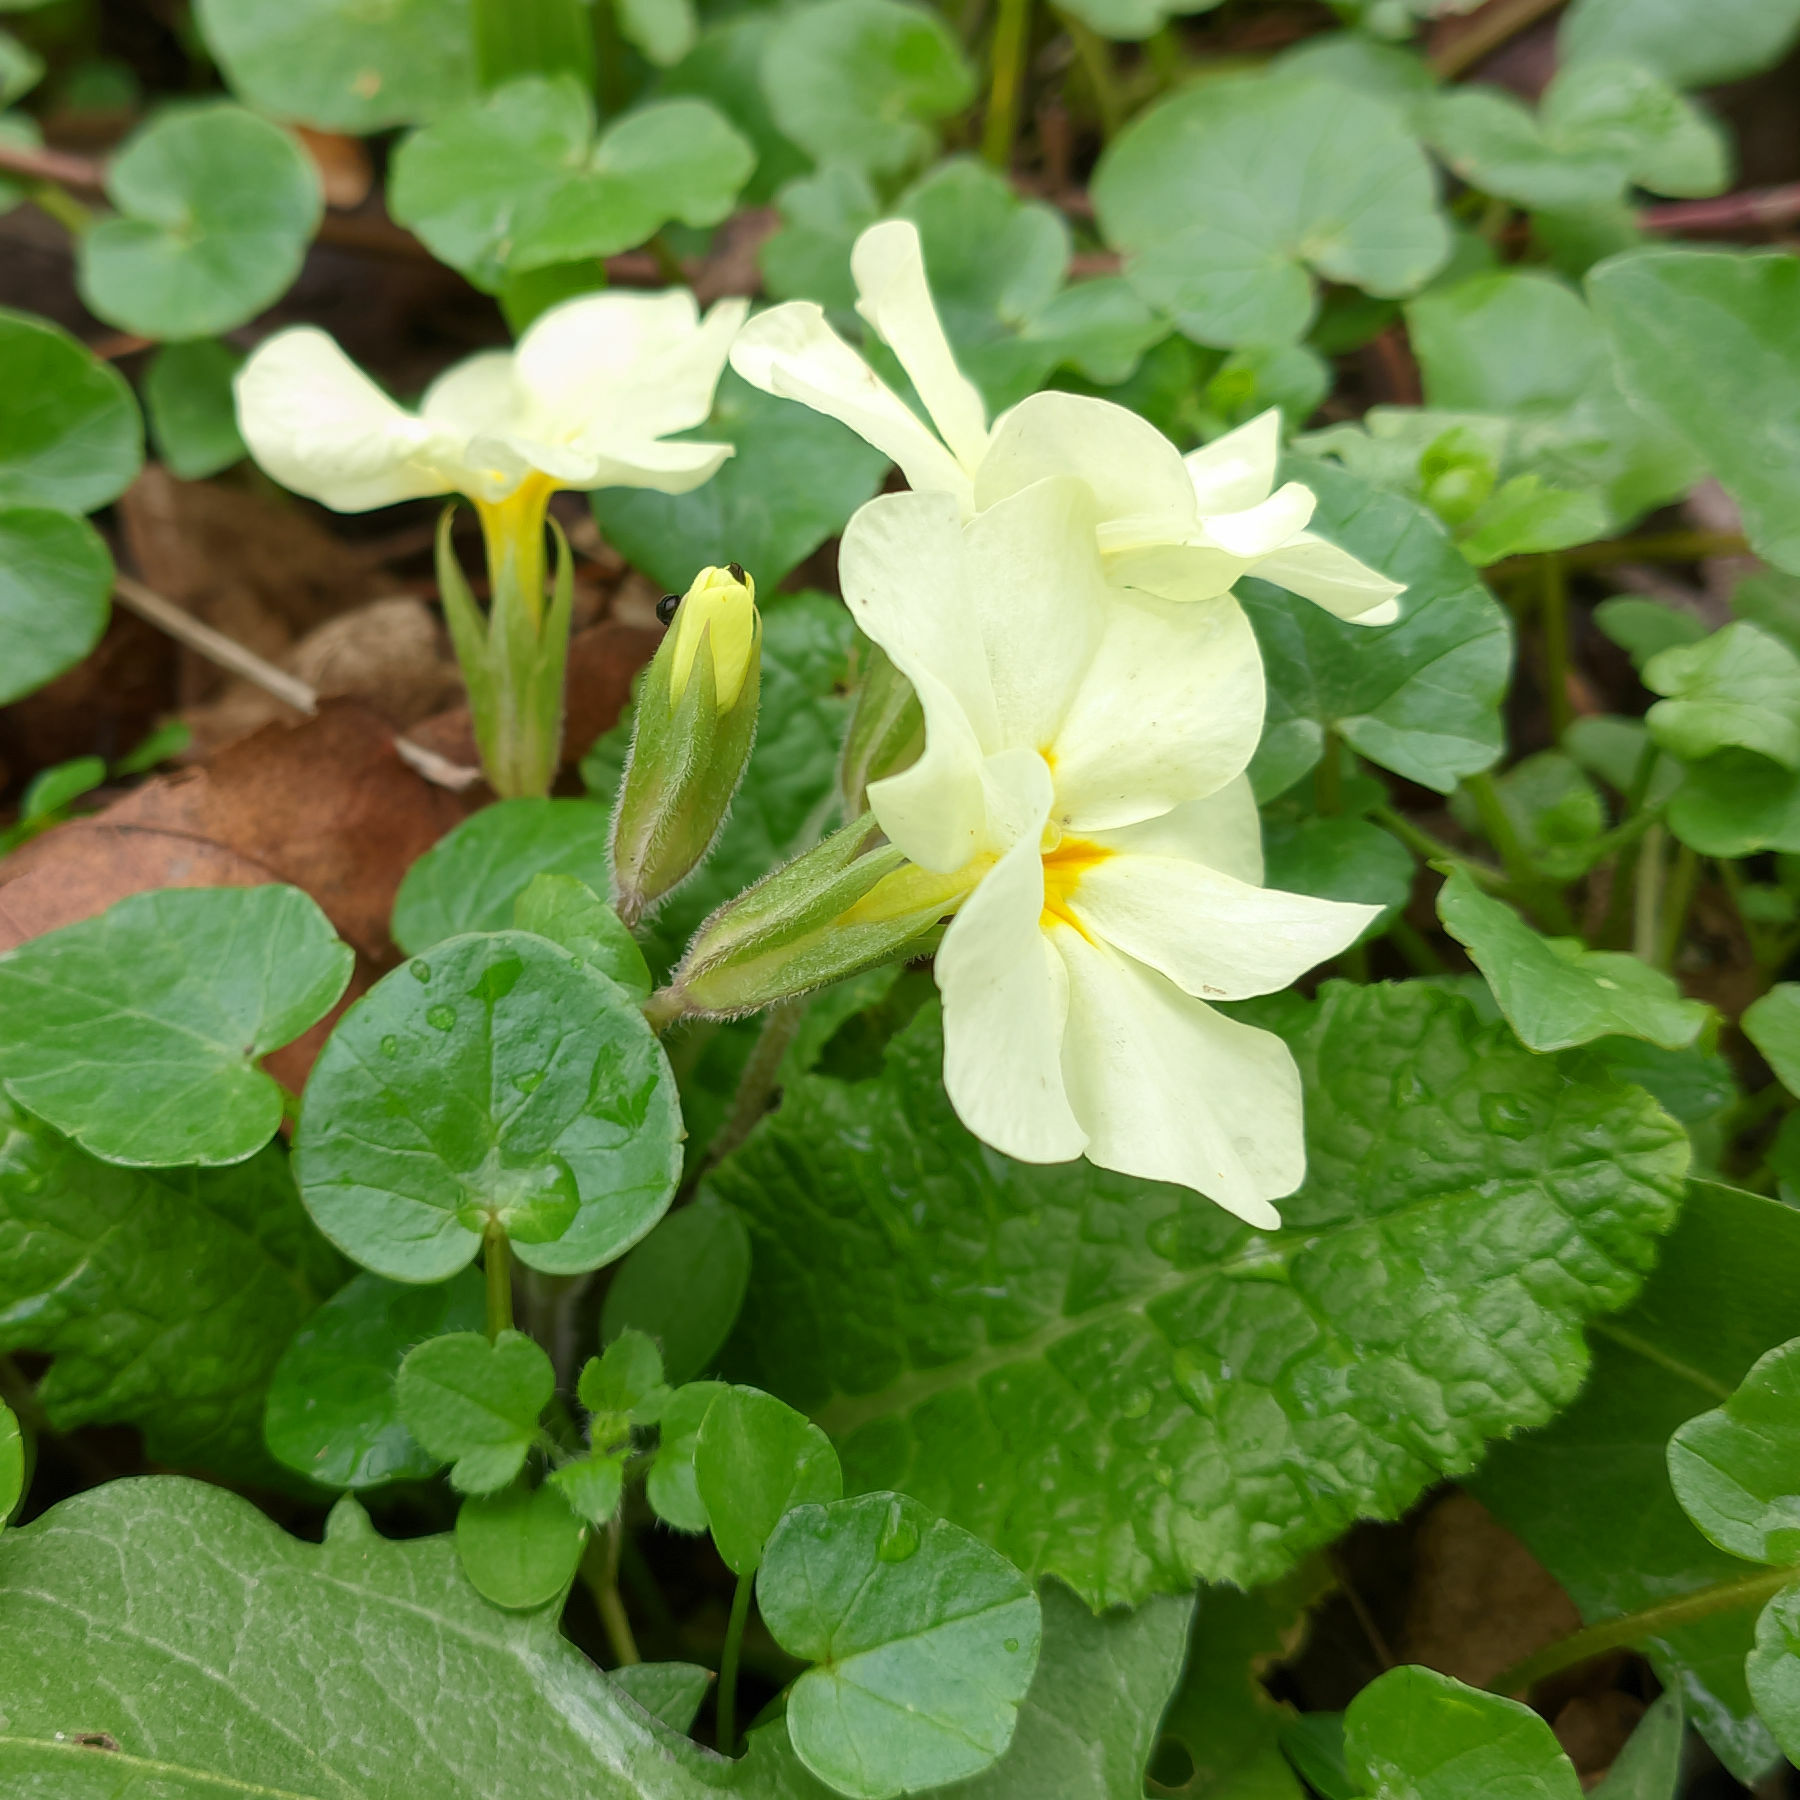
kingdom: Plantae
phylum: Tracheophyta
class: Magnoliopsida
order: Ericales
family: Primulaceae
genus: Primula
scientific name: Primula vulgaris
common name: Primrose
